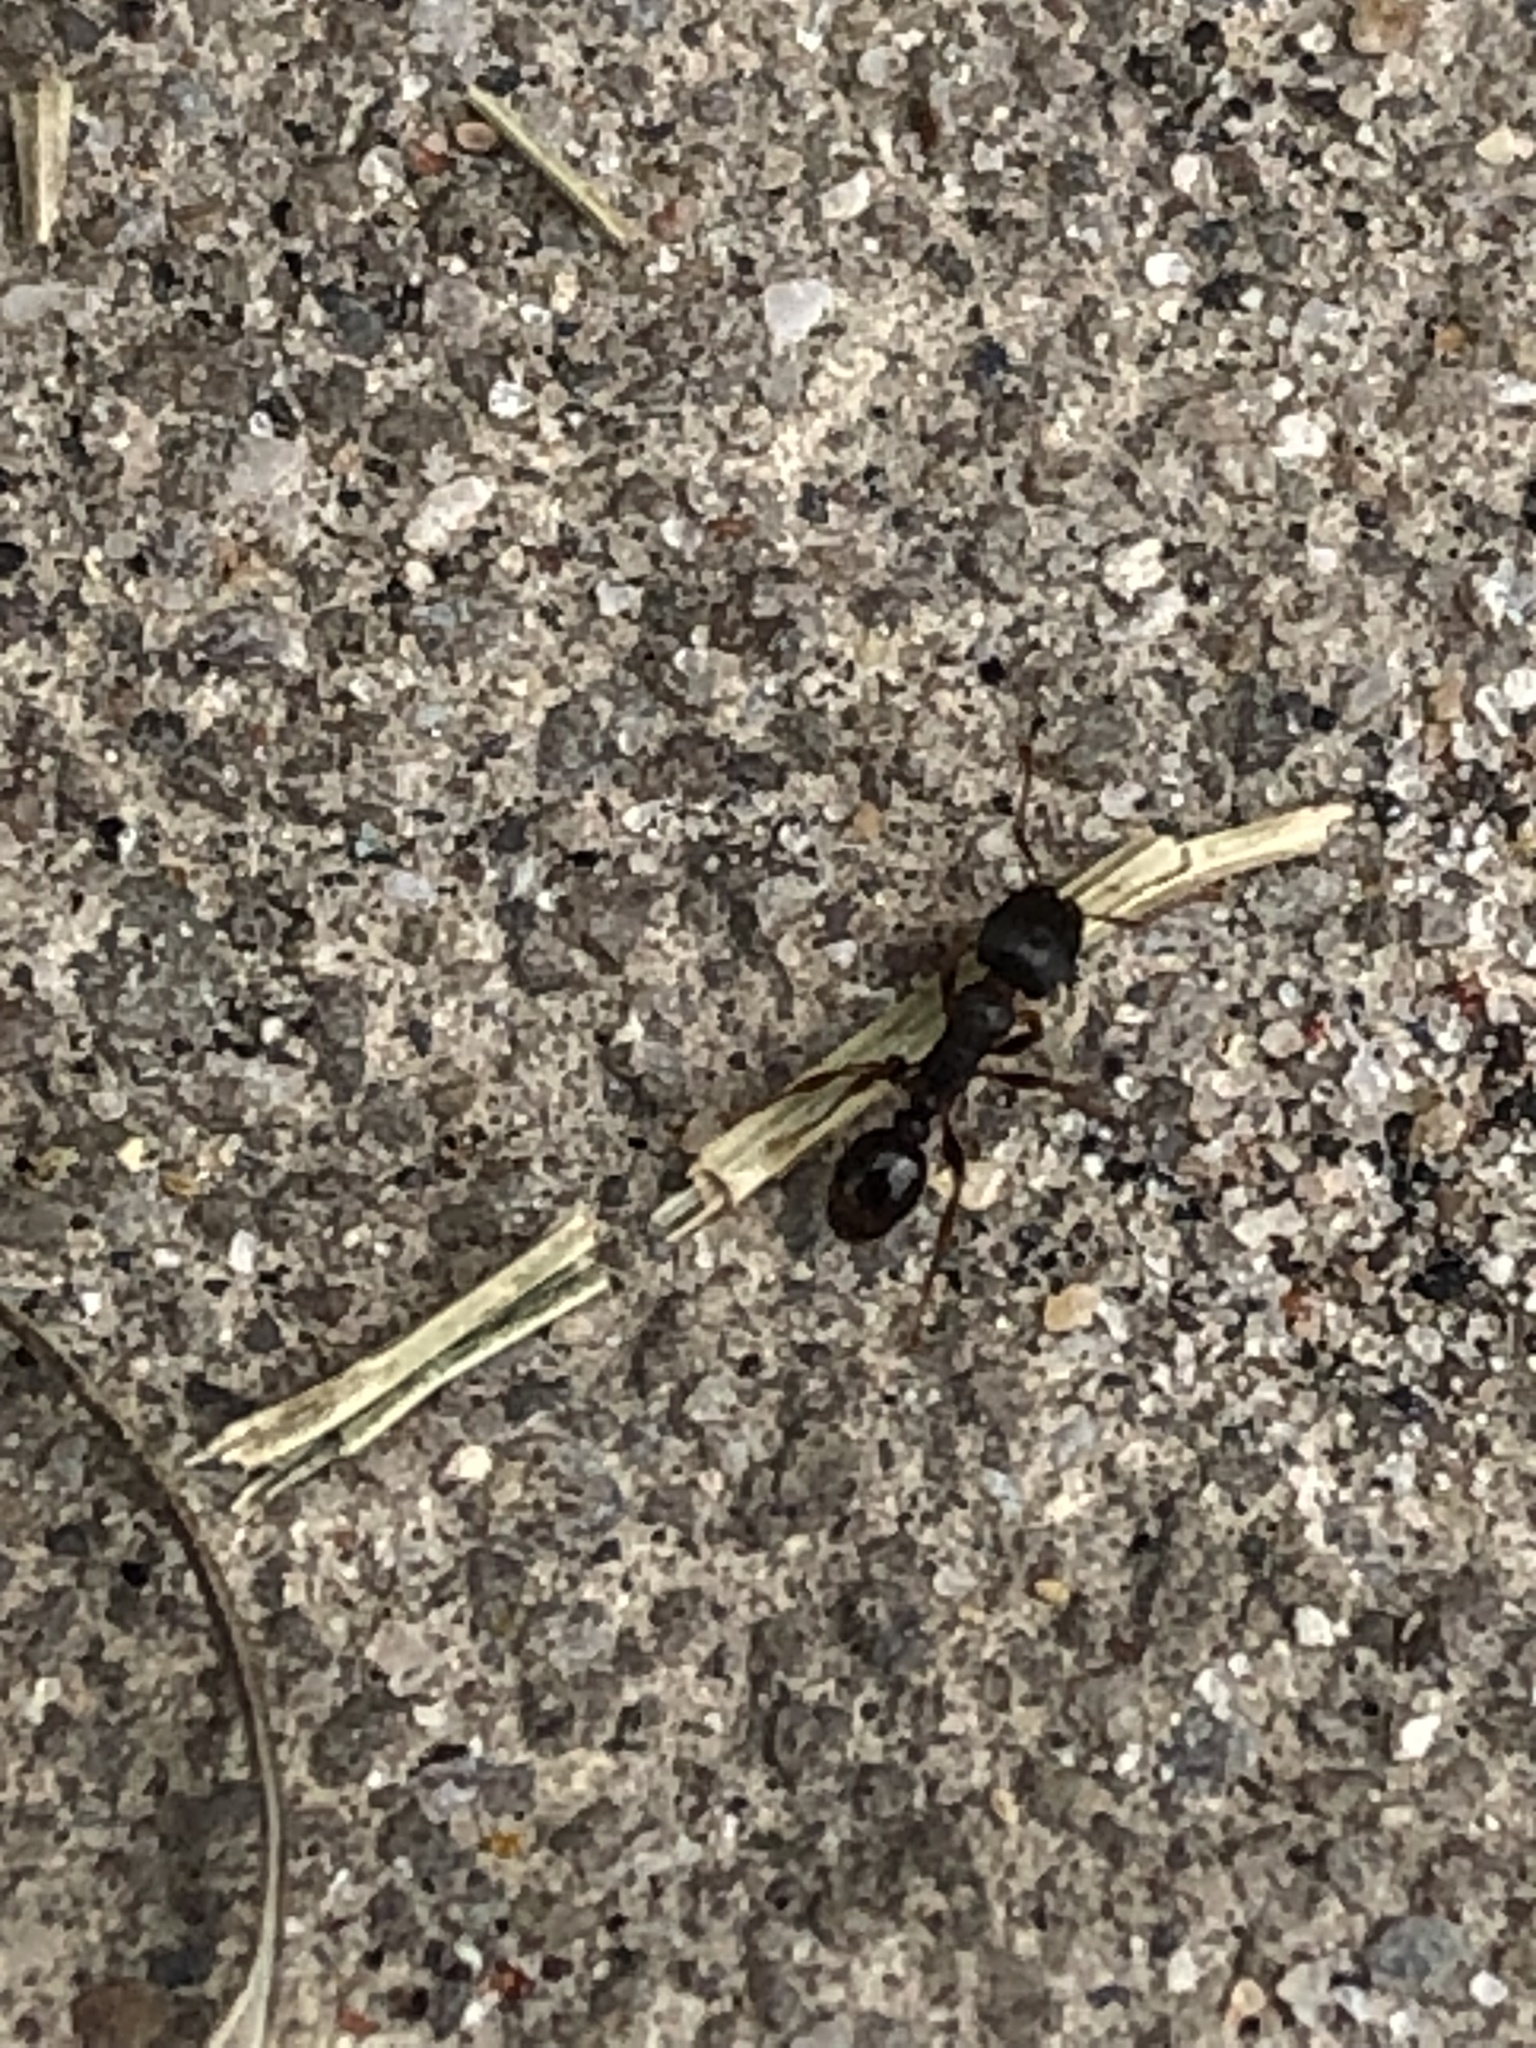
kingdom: Animalia
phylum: Arthropoda
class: Insecta
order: Hymenoptera
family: Formicidae
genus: Tetramorium
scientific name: Tetramorium immigrans
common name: Pavement ant
